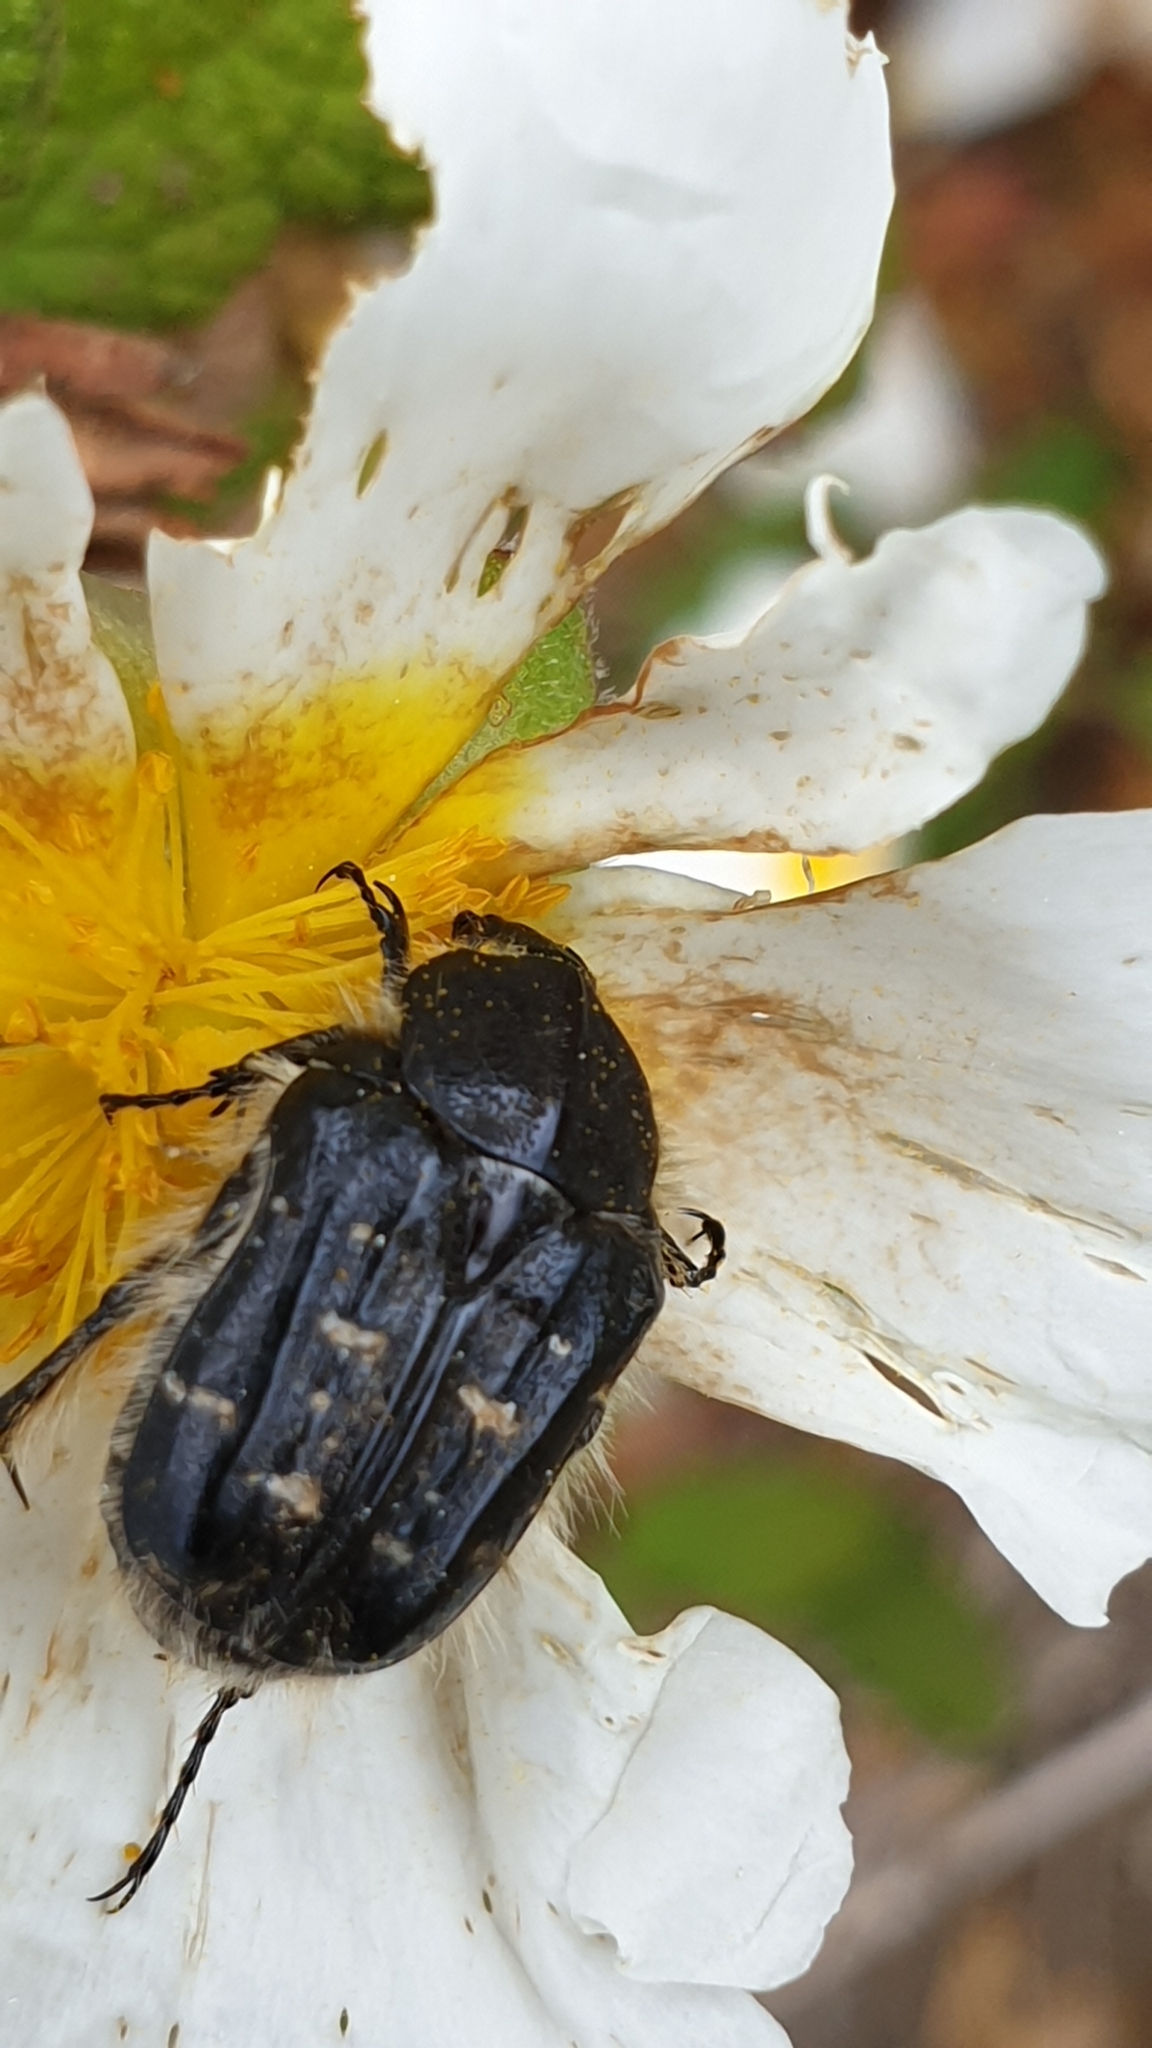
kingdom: Animalia
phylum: Arthropoda
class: Insecta
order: Coleoptera
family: Scarabaeidae
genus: Tropinota
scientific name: Tropinota squalida
